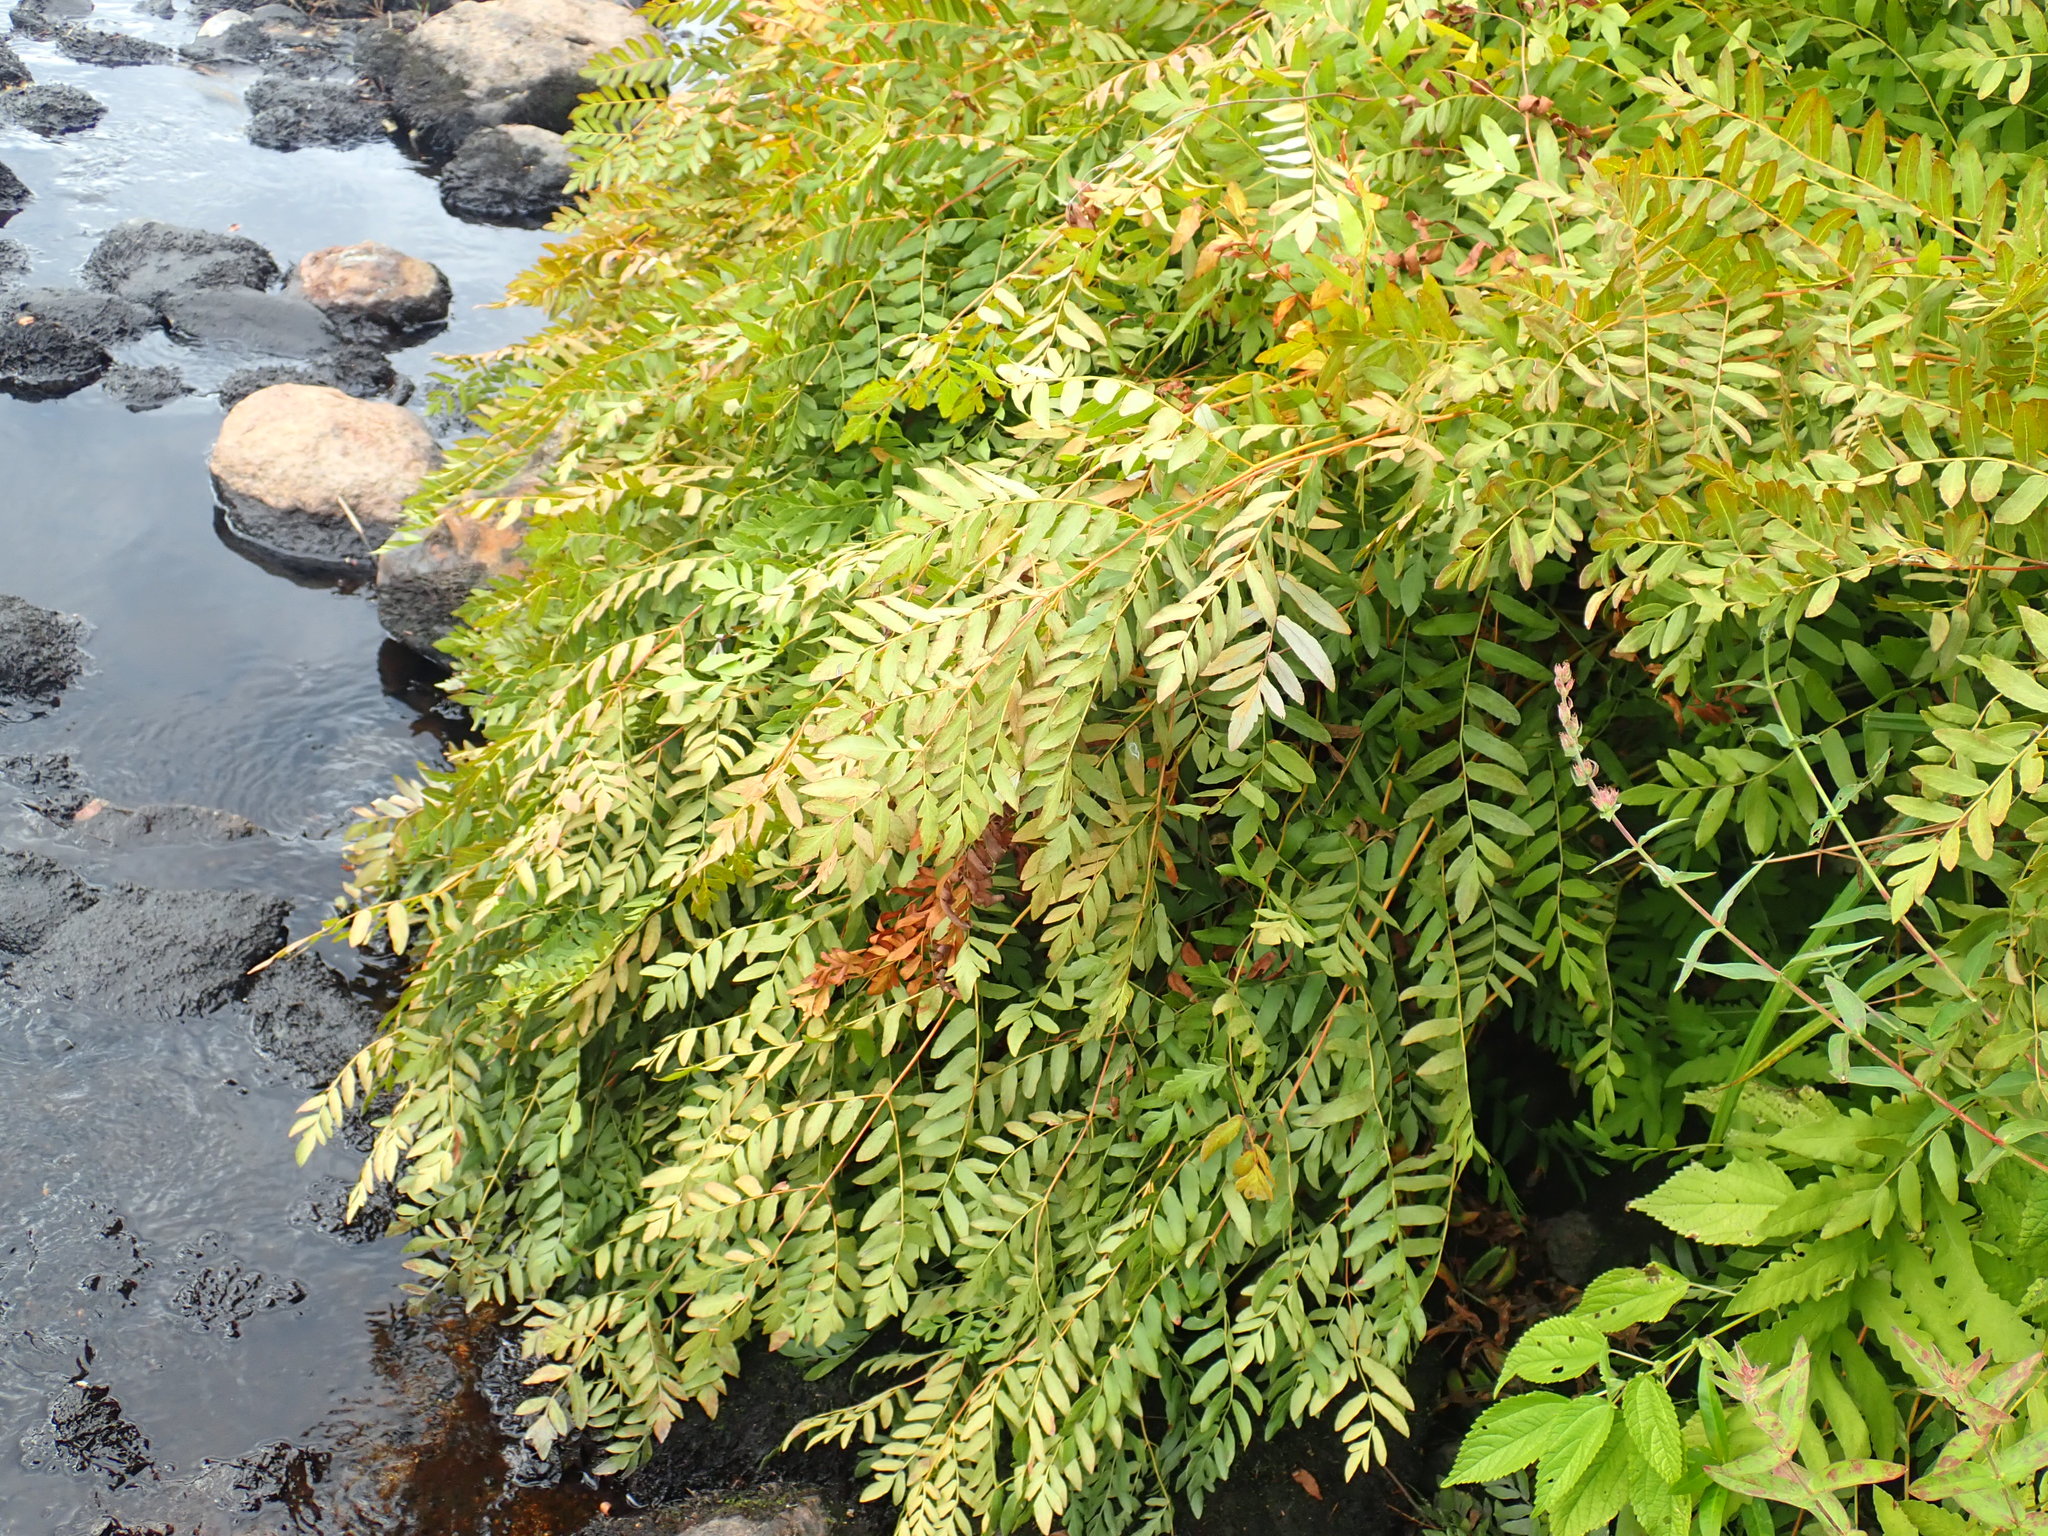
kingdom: Plantae
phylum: Tracheophyta
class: Polypodiopsida
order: Osmundales
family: Osmundaceae
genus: Osmunda
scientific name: Osmunda spectabilis
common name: American royal fern
